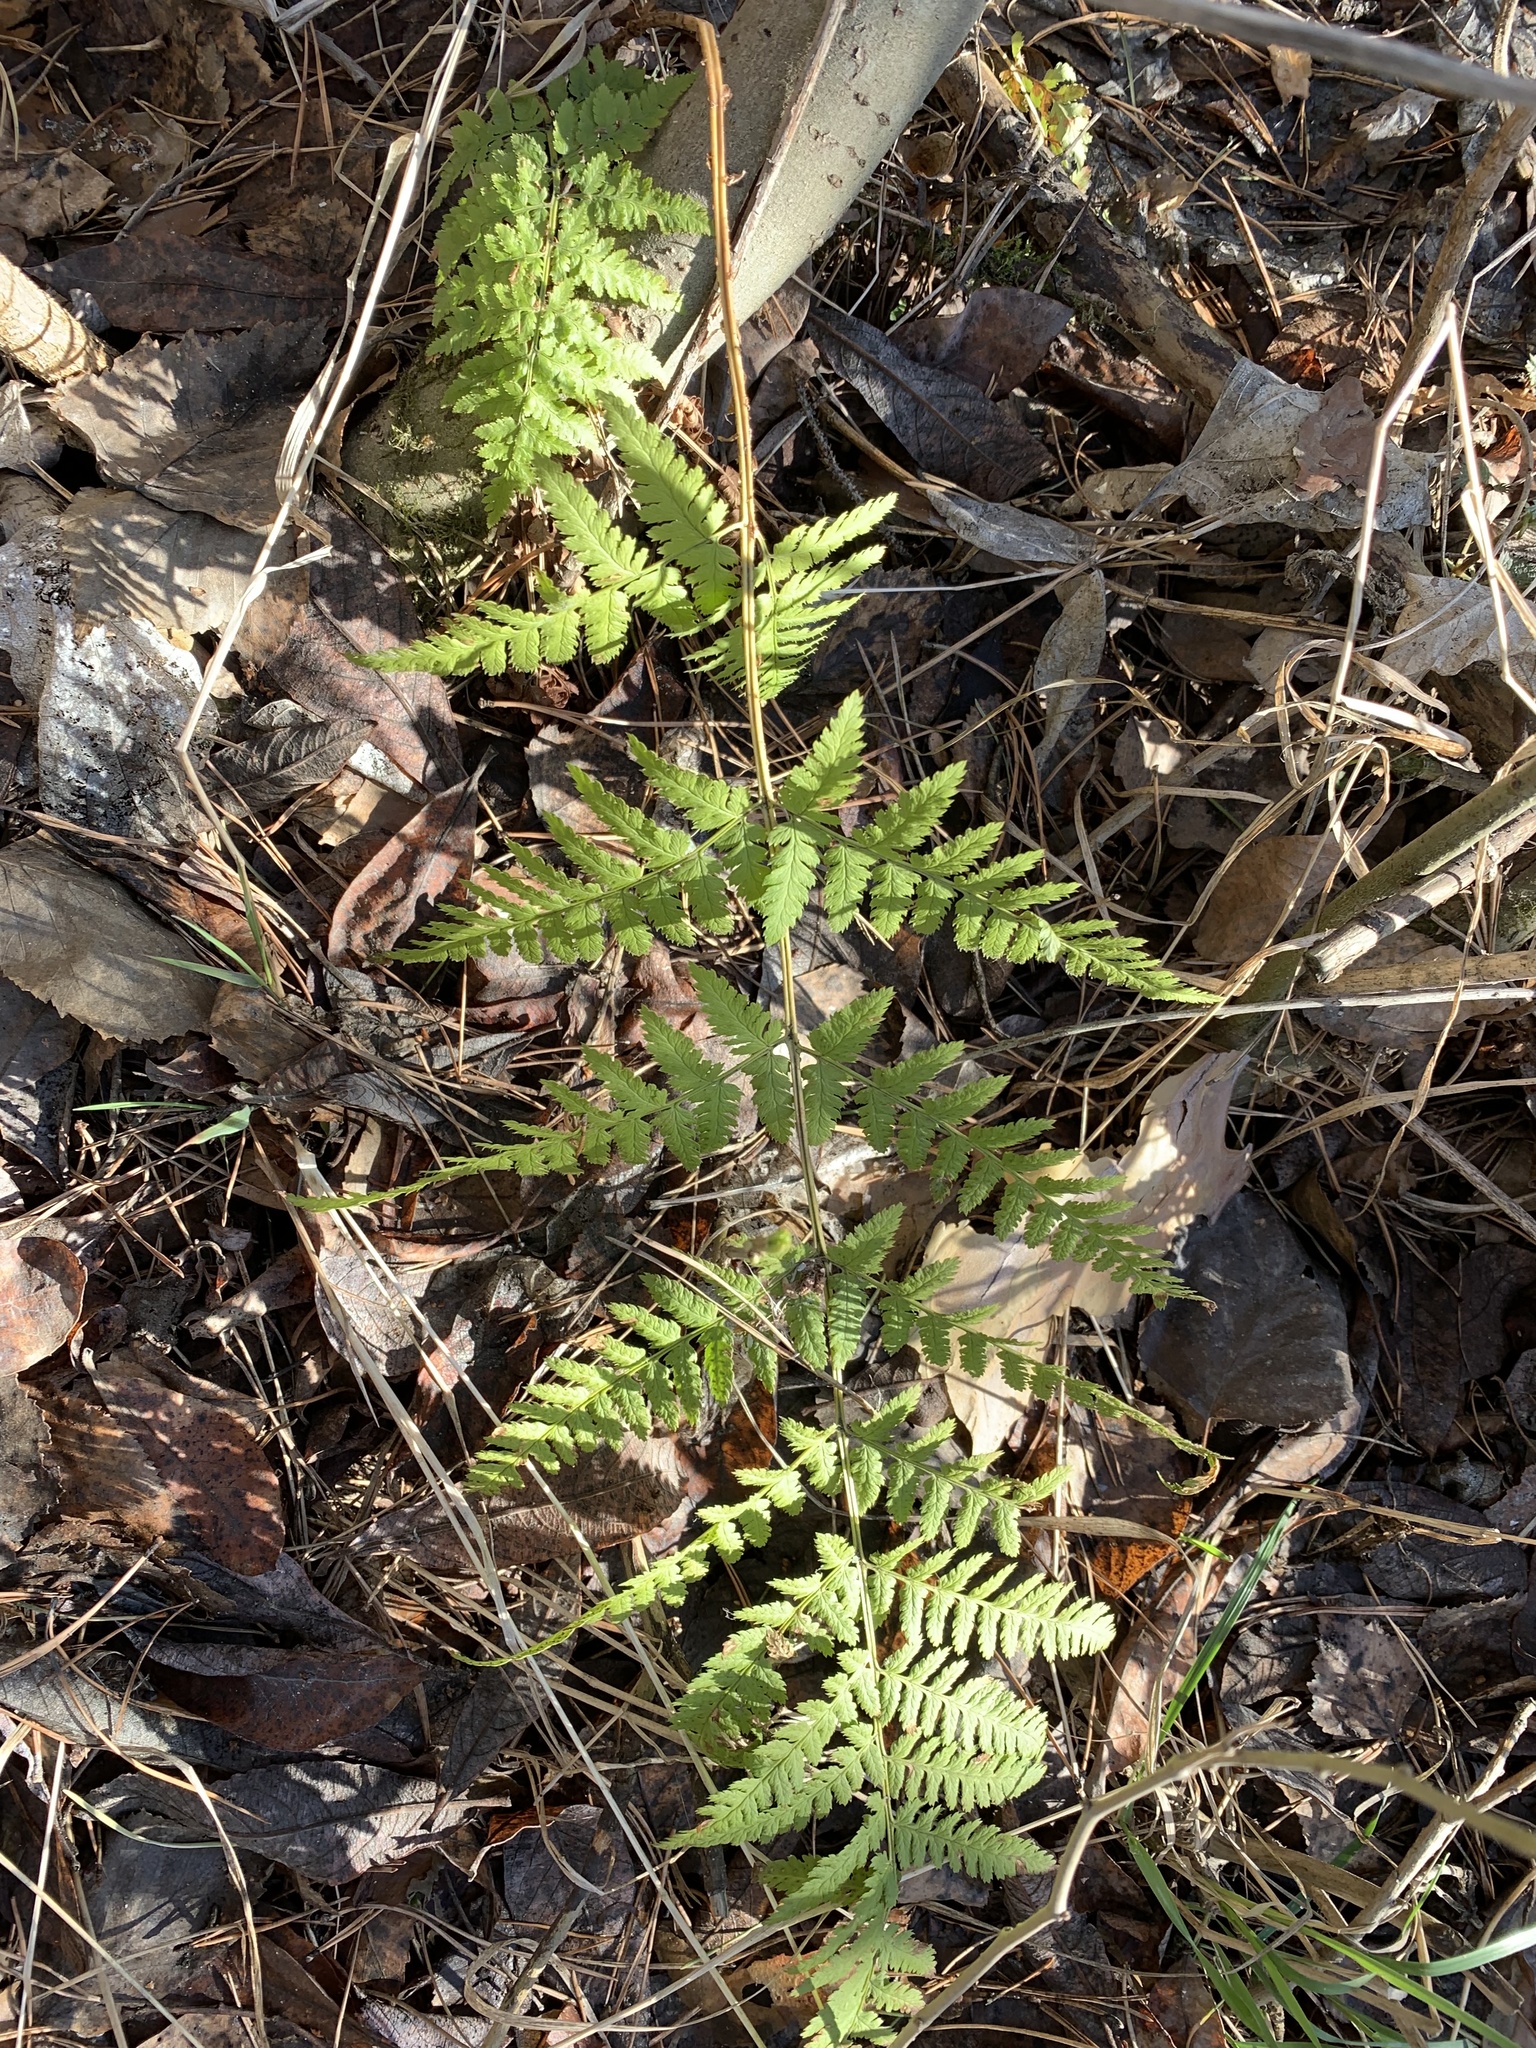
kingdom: Plantae
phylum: Tracheophyta
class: Polypodiopsida
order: Polypodiales
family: Dryopteridaceae
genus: Dryopteris
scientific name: Dryopteris carthusiana
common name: Narrow buckler-fern
